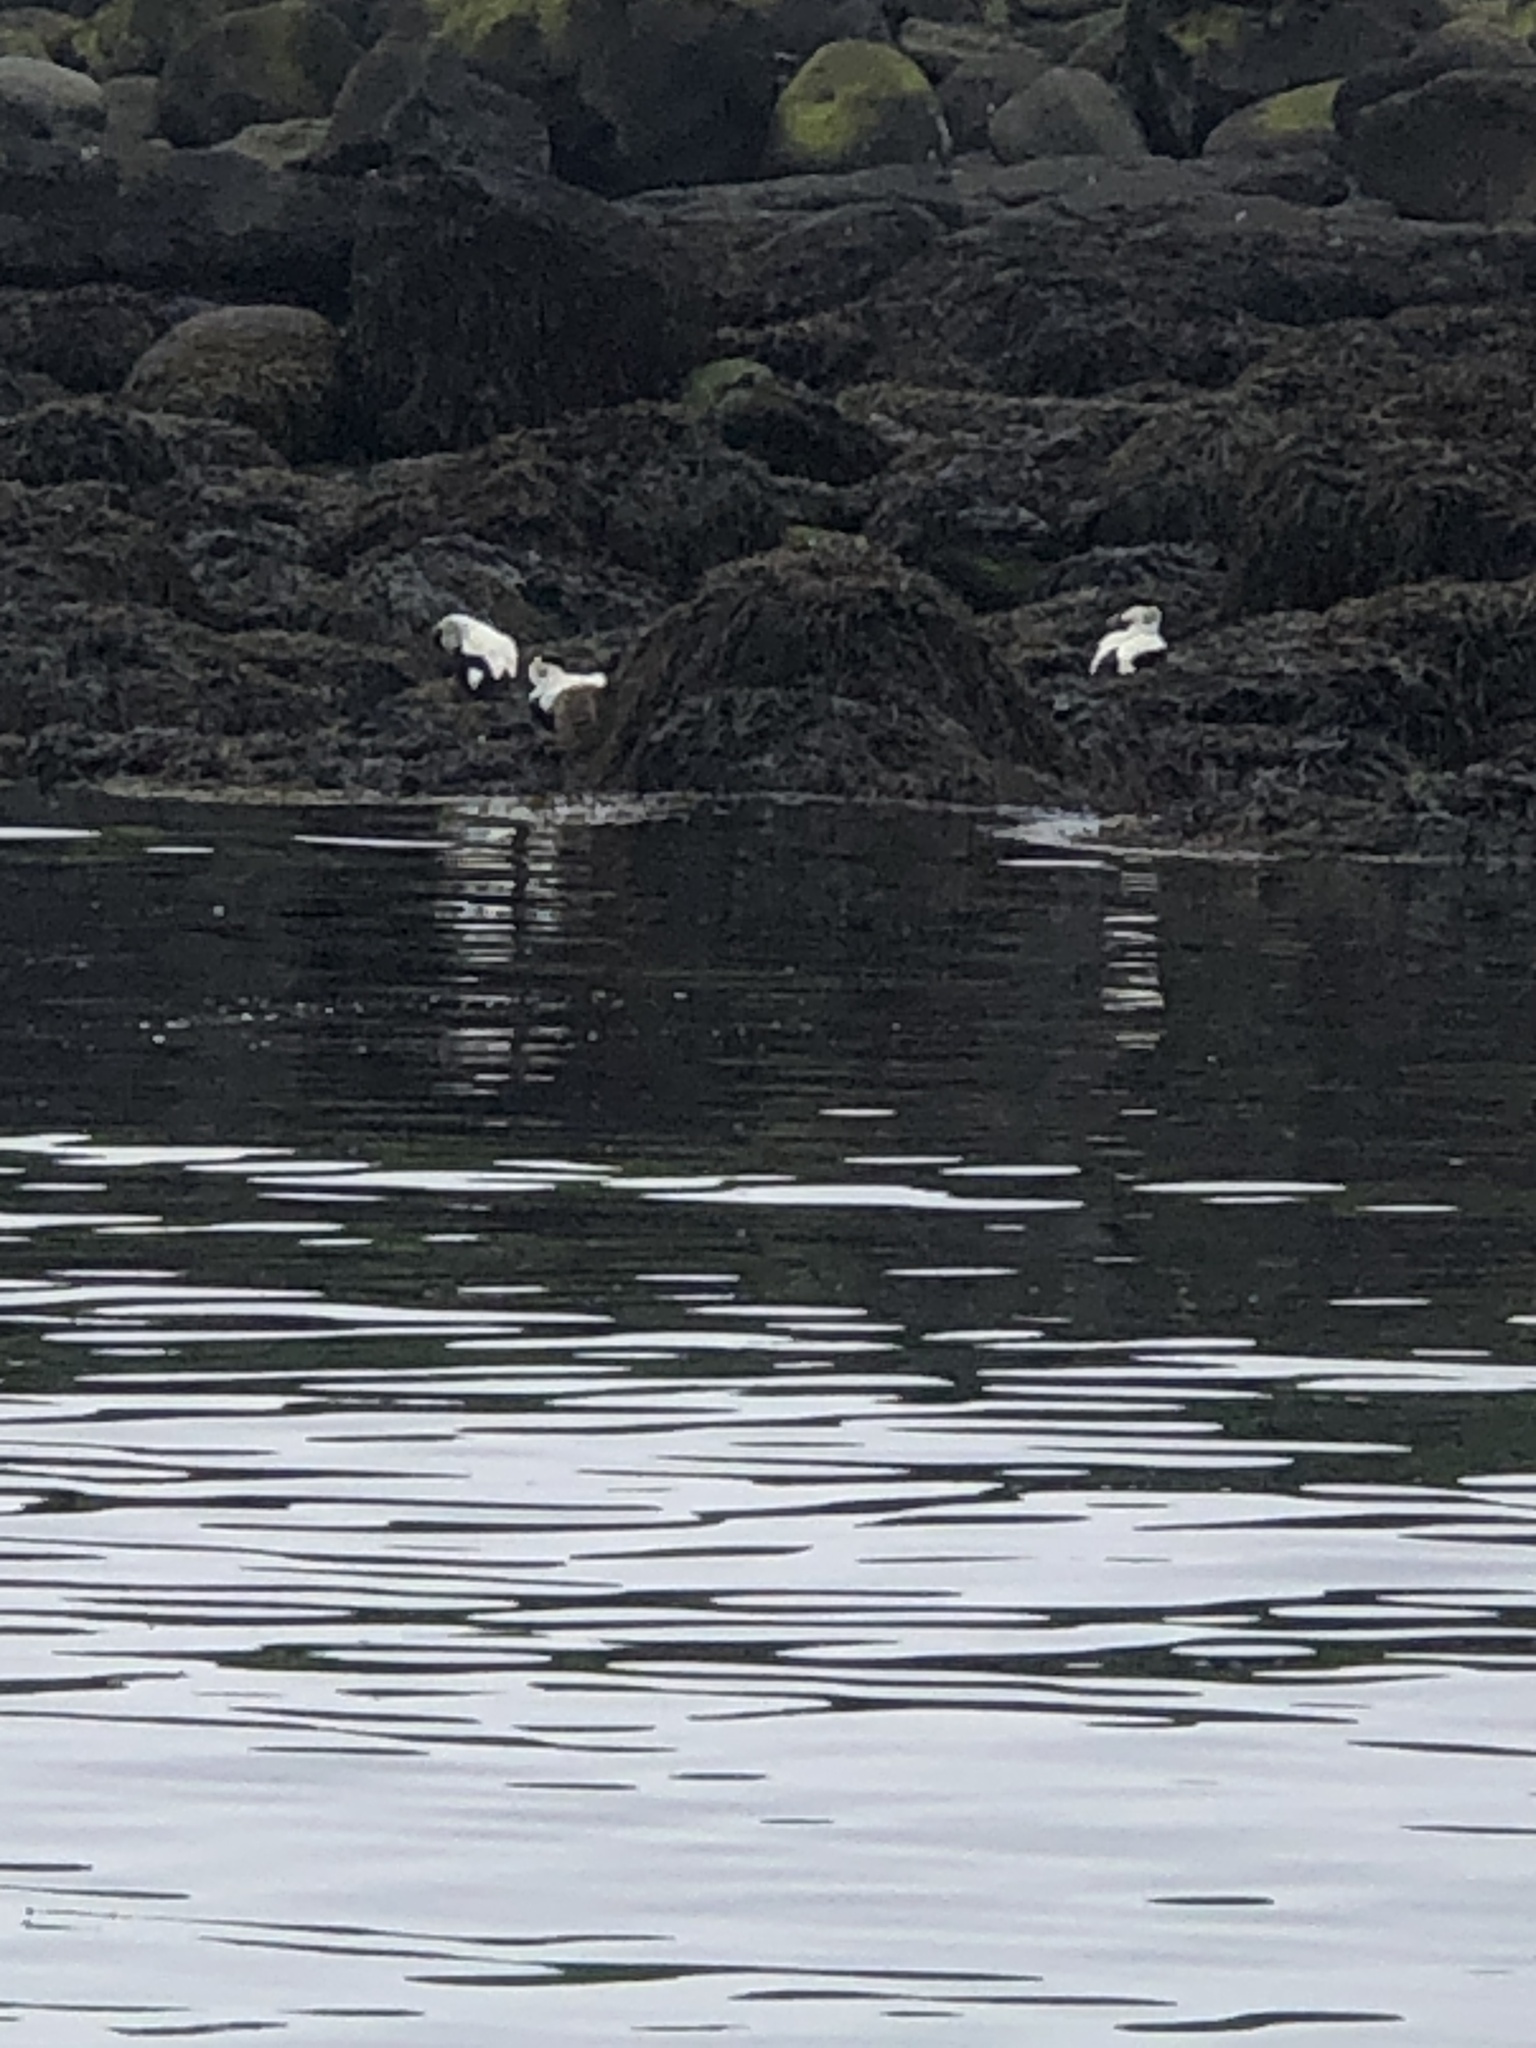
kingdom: Animalia
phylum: Chordata
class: Aves
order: Anseriformes
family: Anatidae
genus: Somateria
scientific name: Somateria mollissima
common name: Common eider
